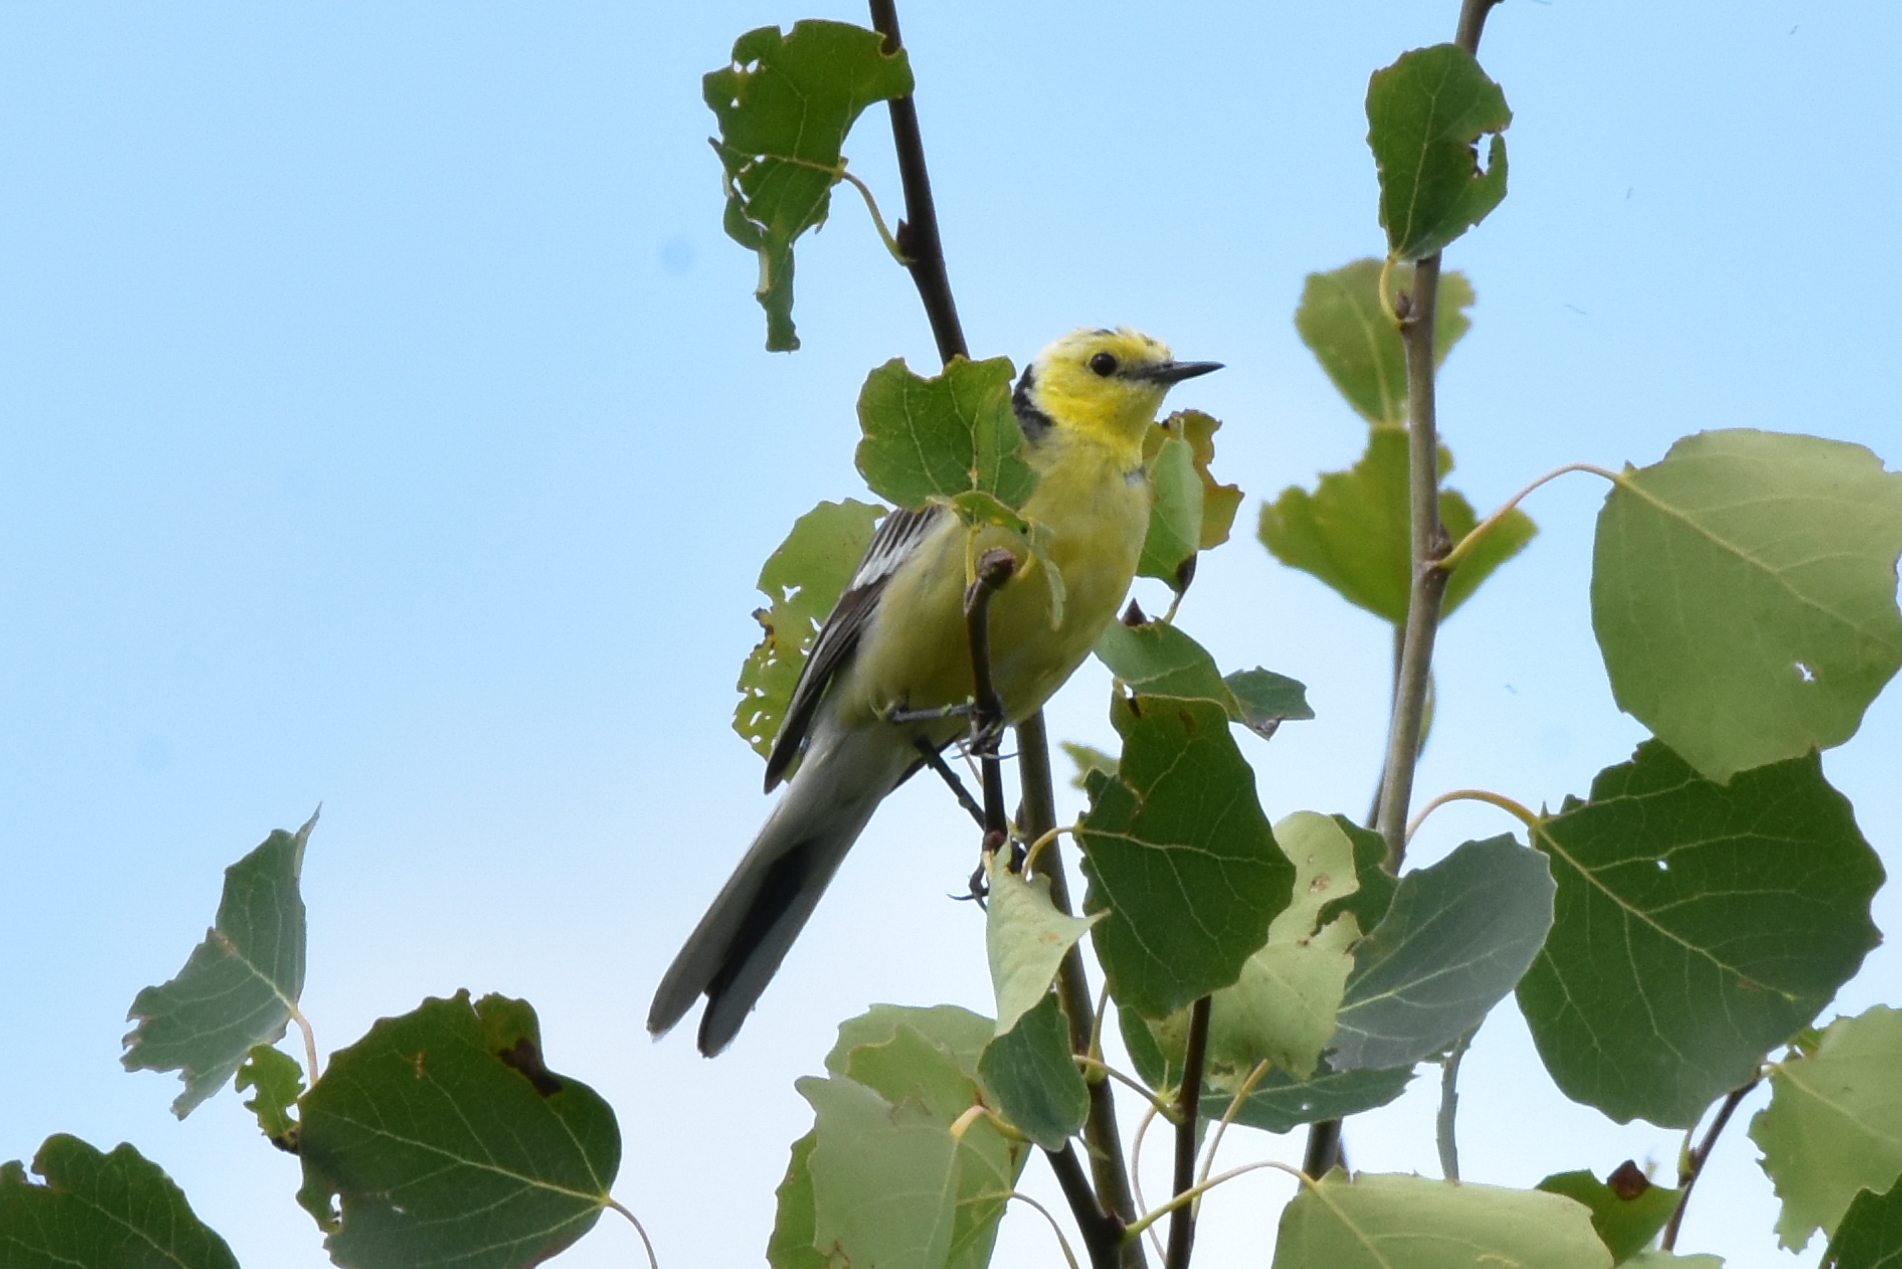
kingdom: Animalia
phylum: Chordata
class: Aves
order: Passeriformes
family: Motacillidae
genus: Motacilla
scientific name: Motacilla citreola
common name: Citrine wagtail
